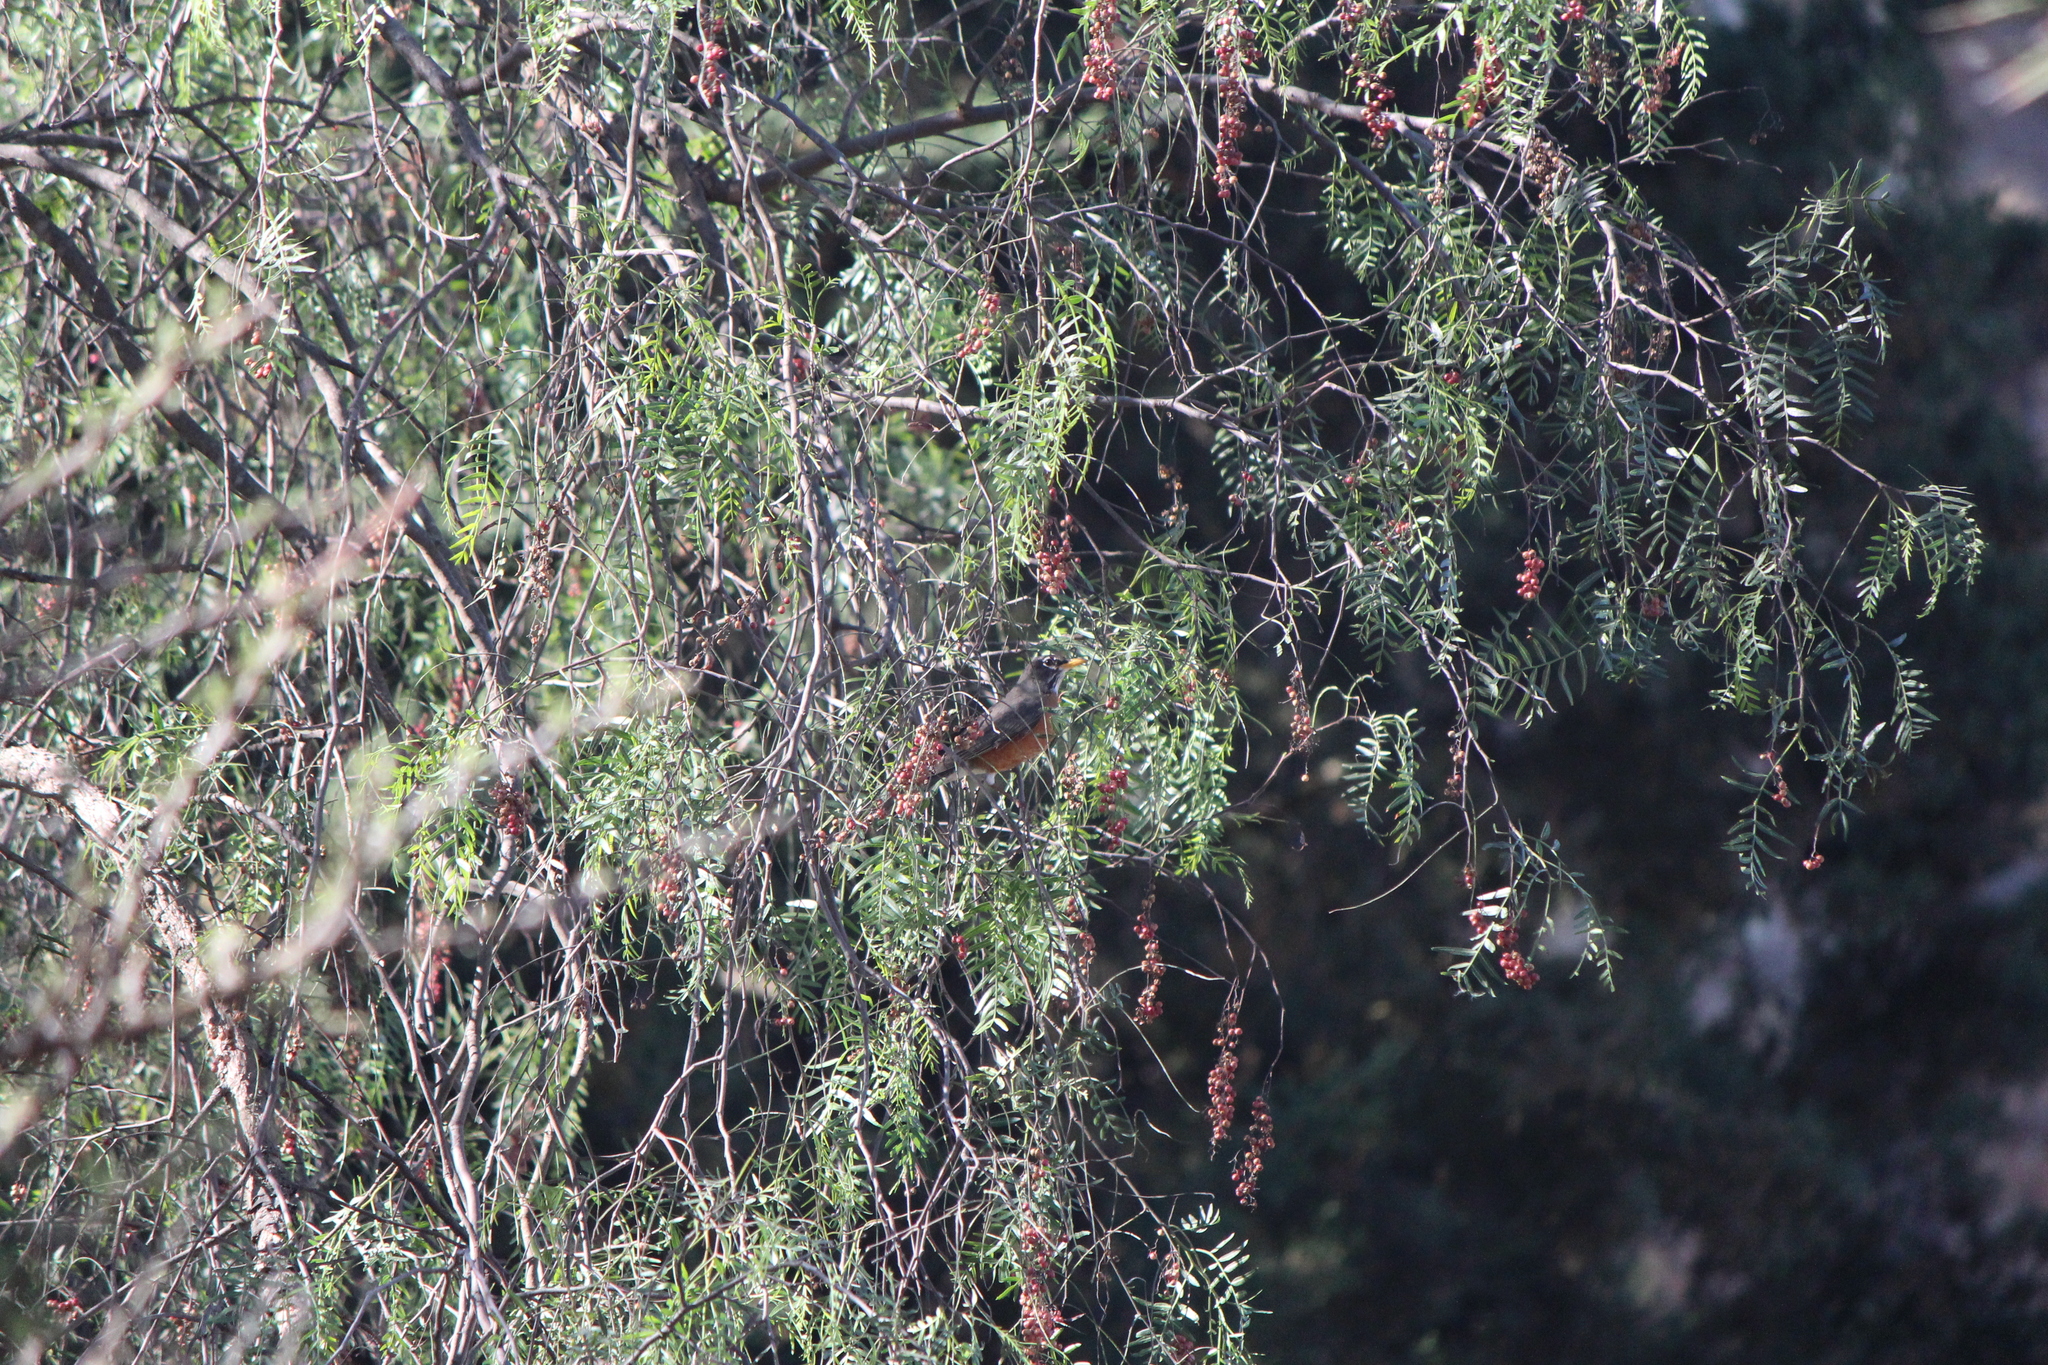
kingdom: Animalia
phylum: Chordata
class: Aves
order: Passeriformes
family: Turdidae
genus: Turdus
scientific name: Turdus migratorius
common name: American robin
